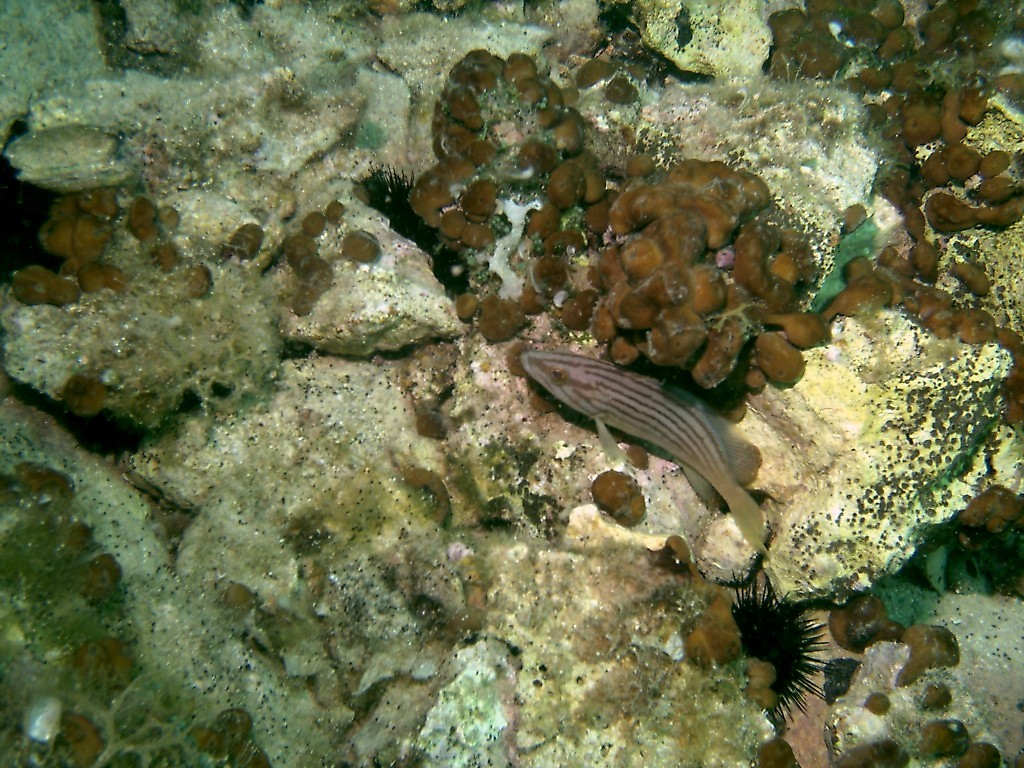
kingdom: Animalia
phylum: Chordata
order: Perciformes
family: Serranidae
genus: Epinephelus
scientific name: Epinephelus costae
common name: Goldblotch grouper
